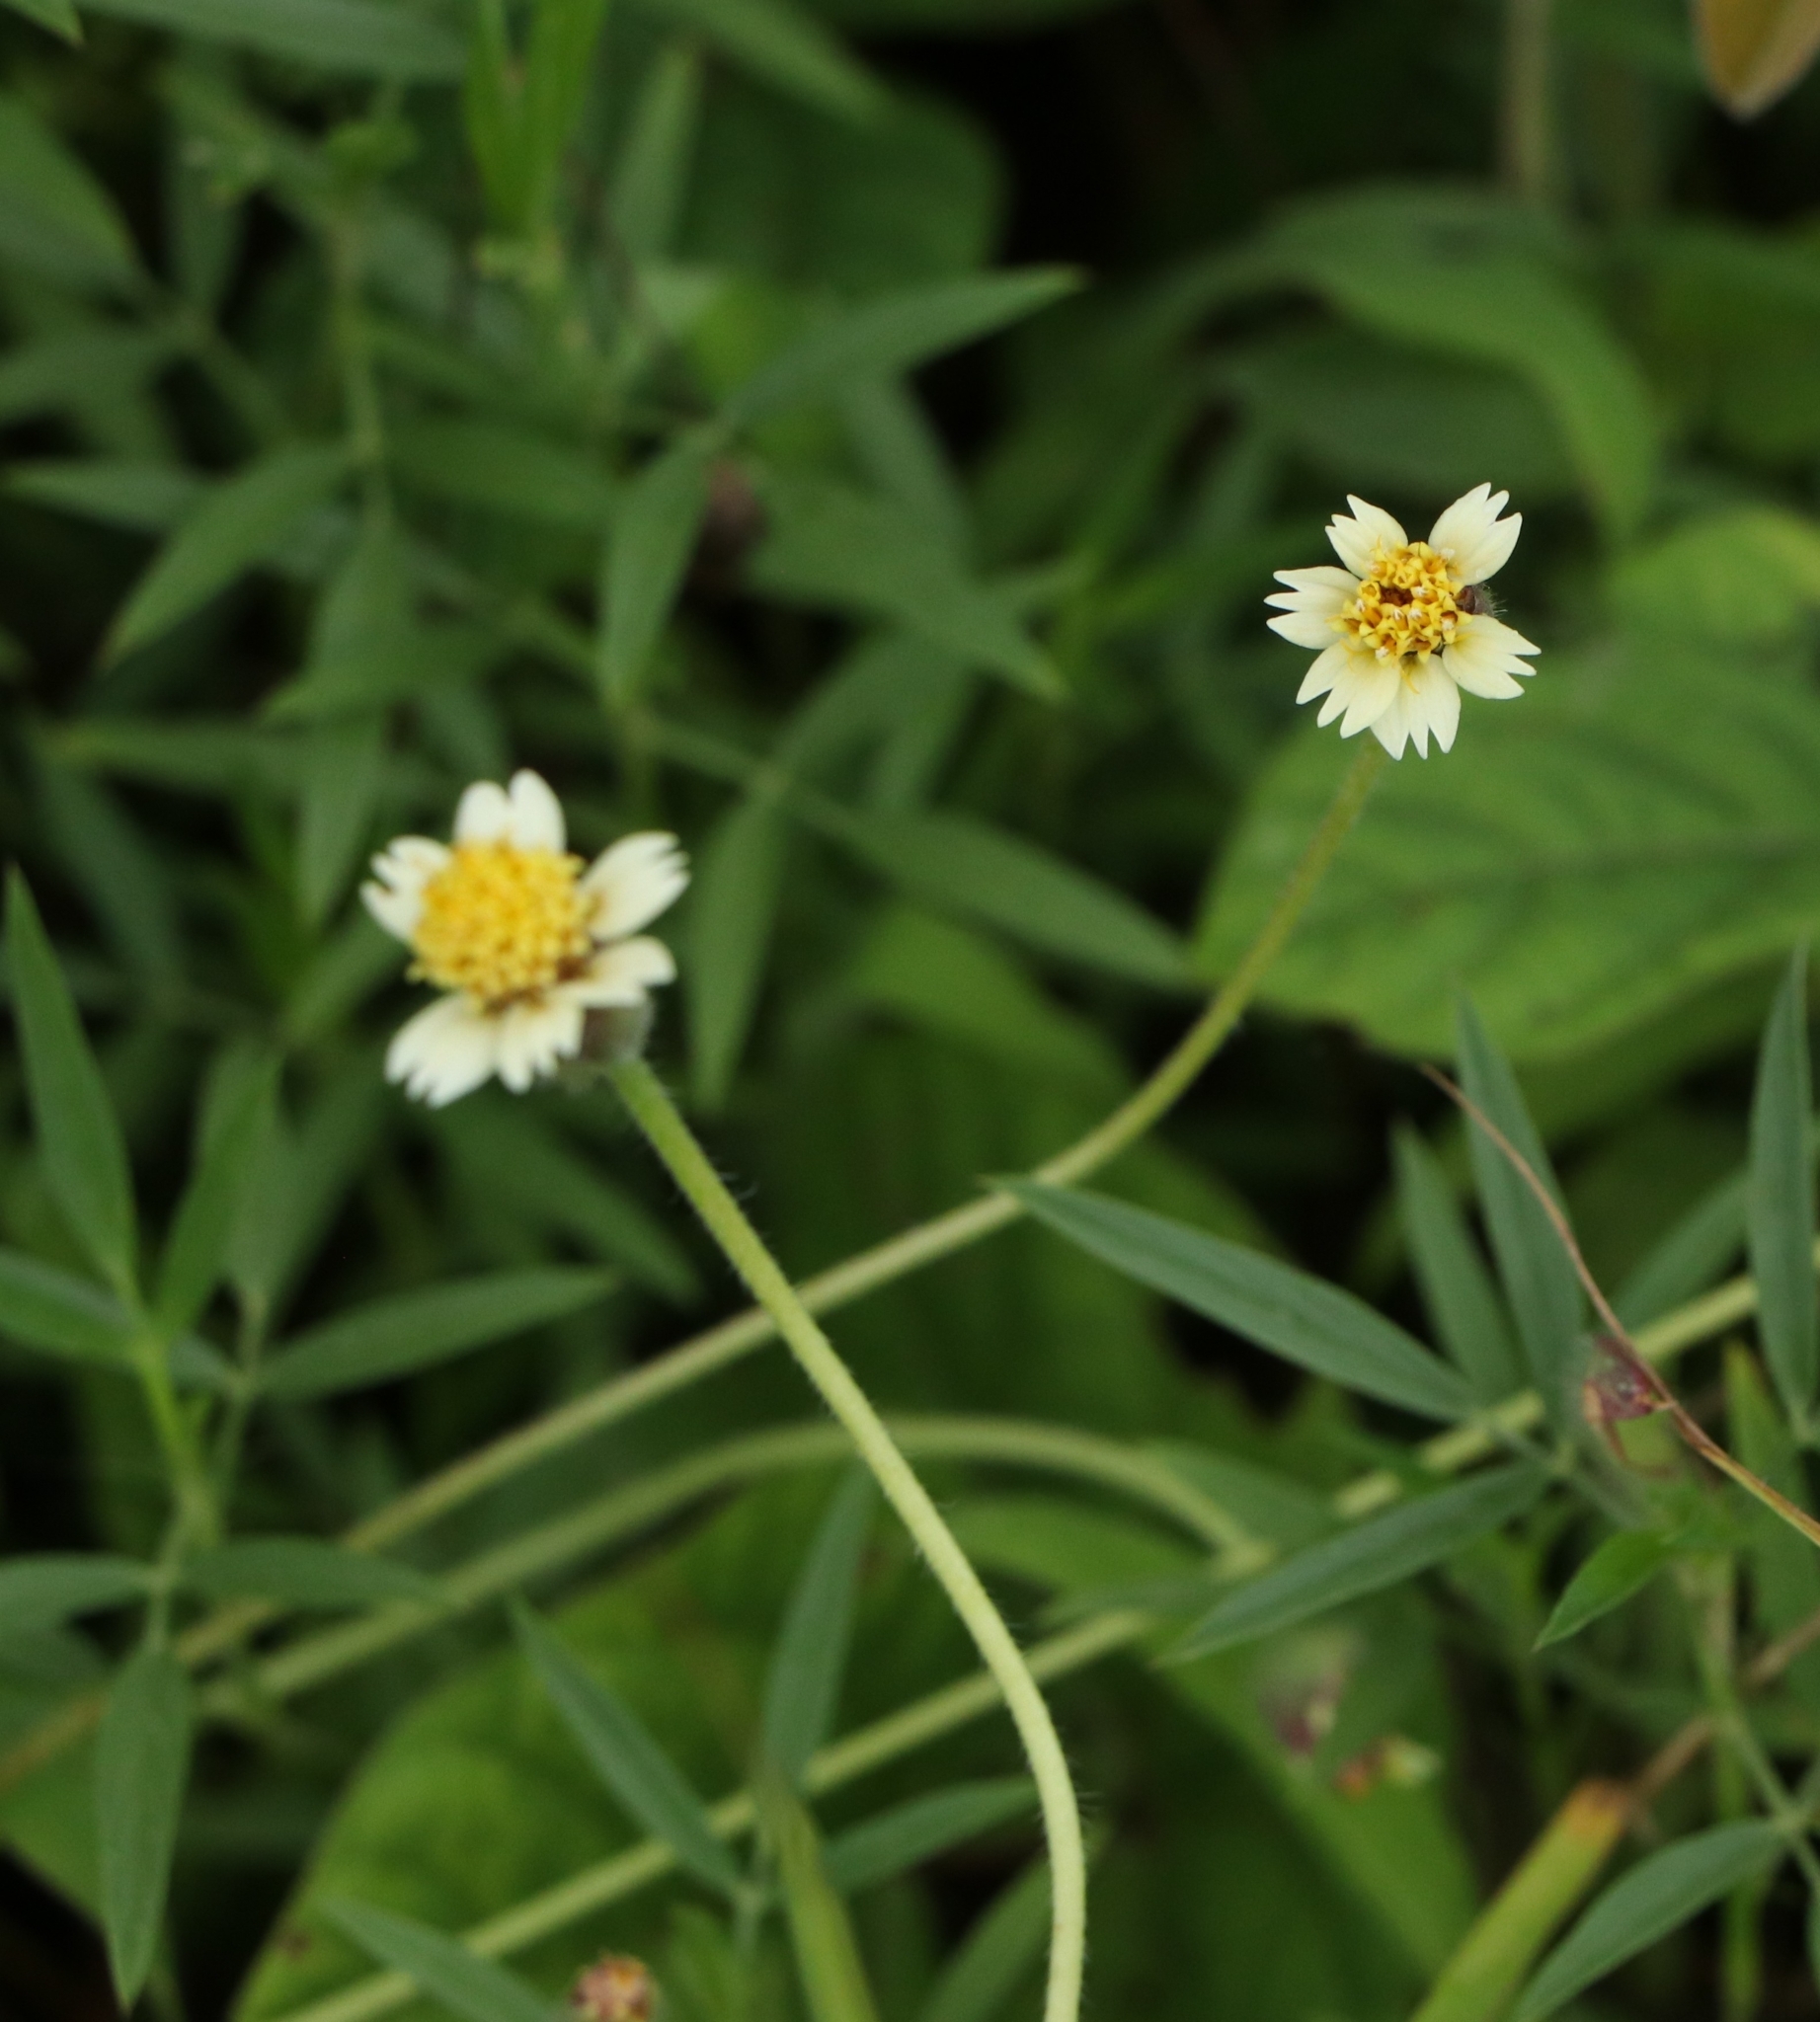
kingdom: Plantae
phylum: Tracheophyta
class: Magnoliopsida
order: Asterales
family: Asteraceae
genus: Tridax
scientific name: Tridax procumbens
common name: Coatbuttons
